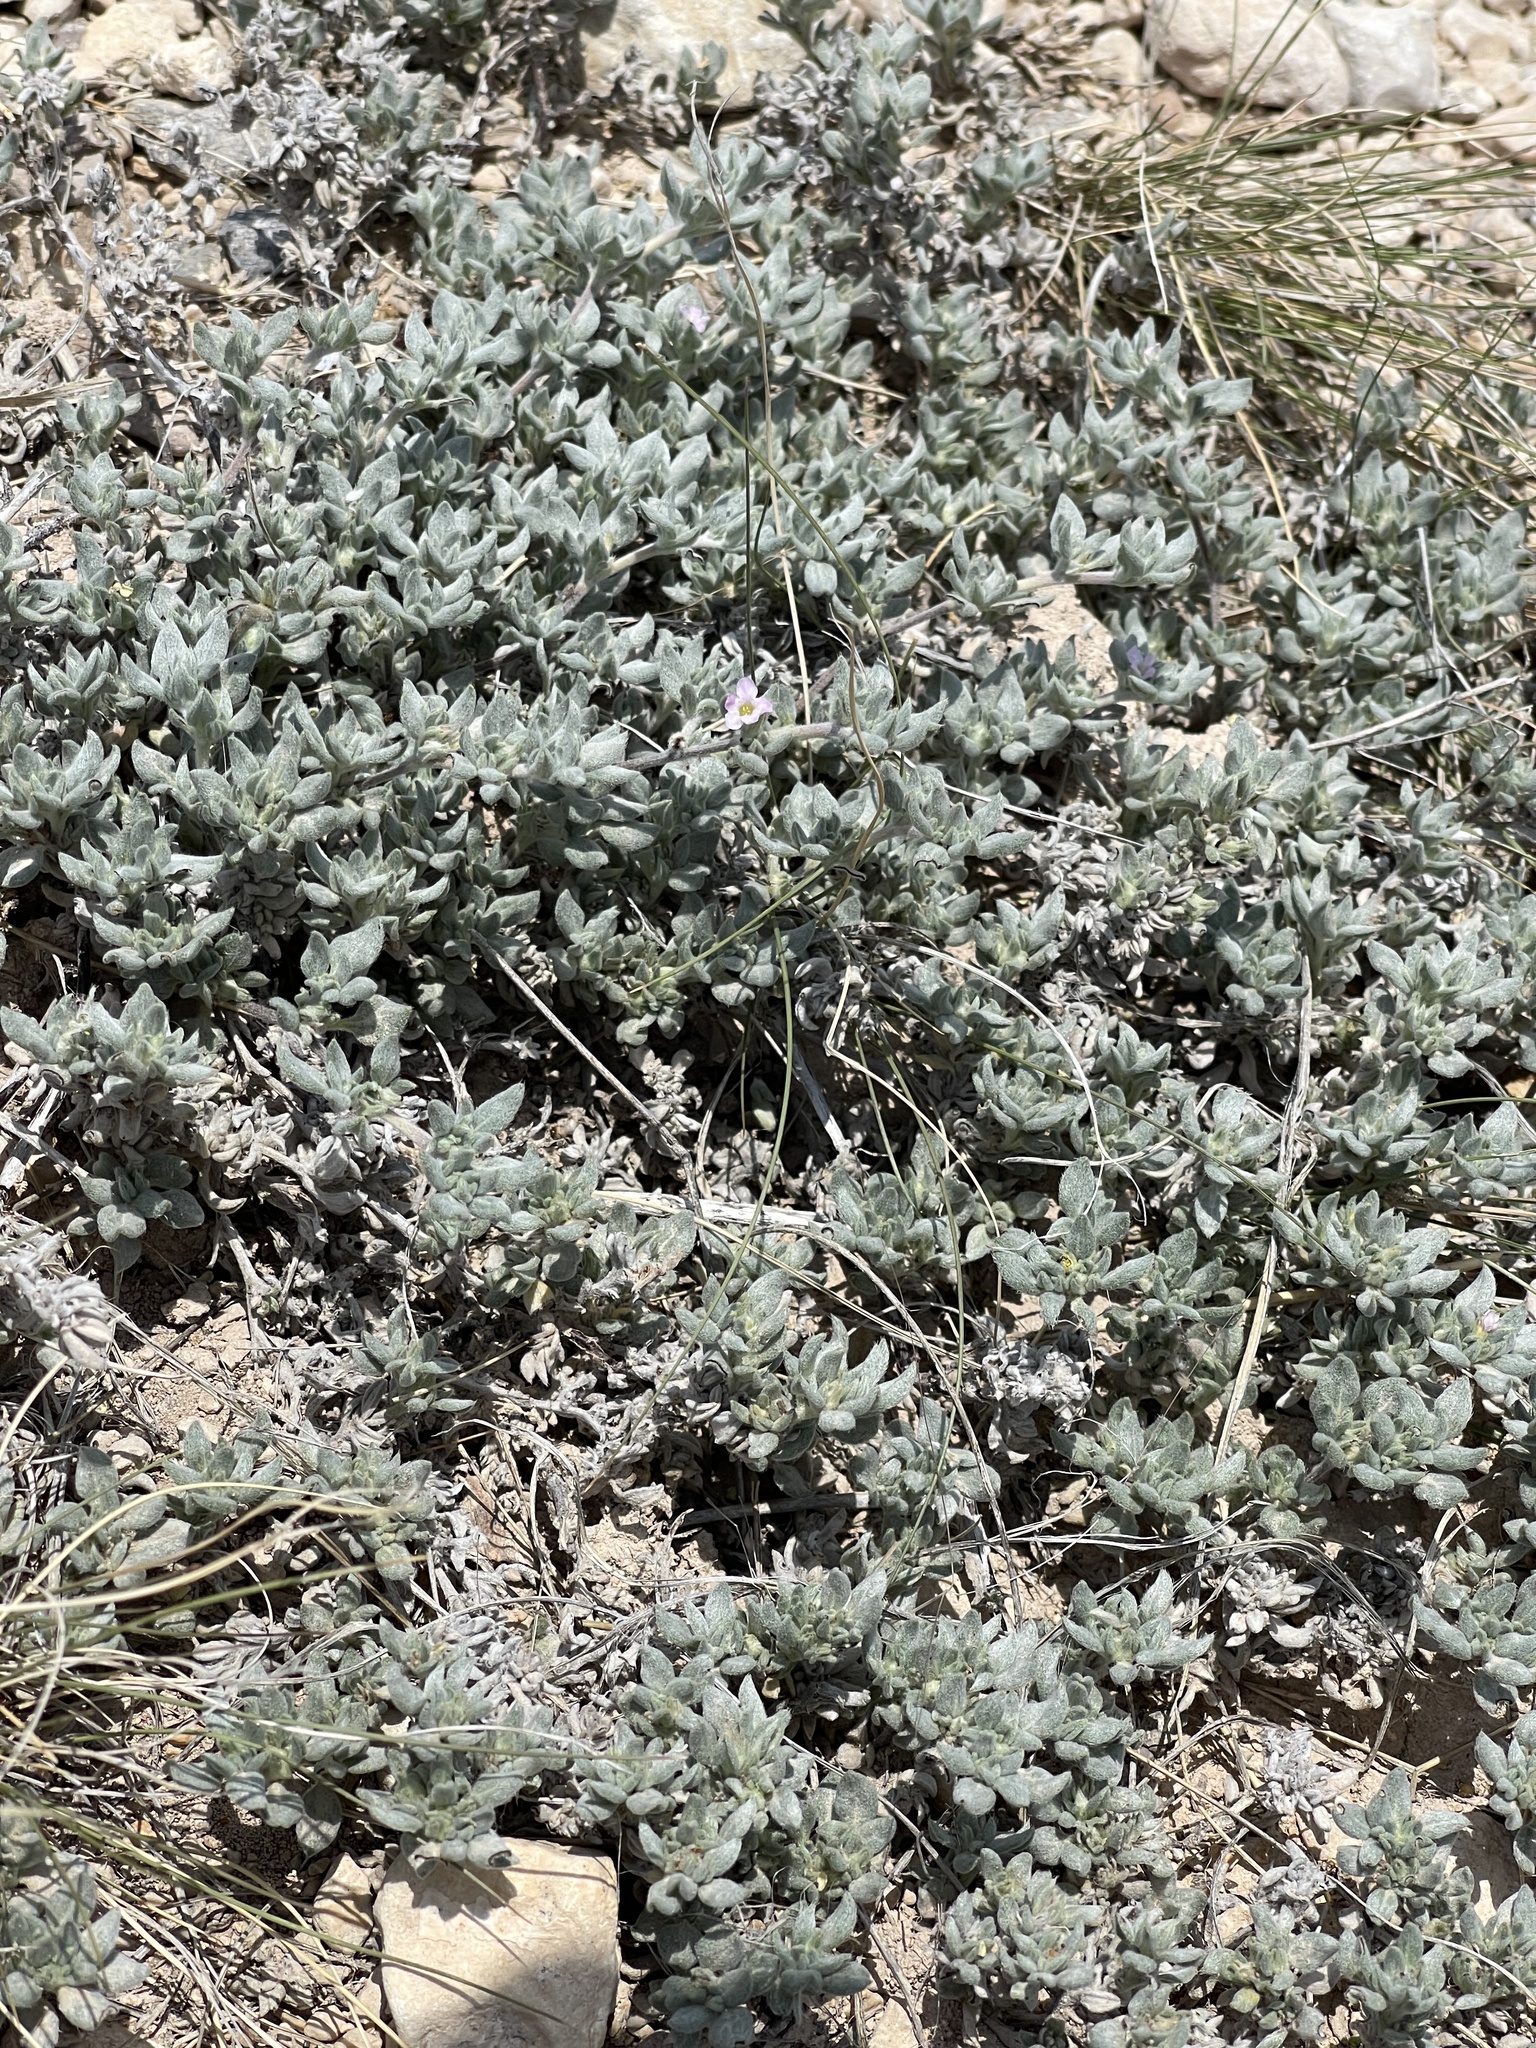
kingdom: Plantae
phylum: Tracheophyta
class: Magnoliopsida
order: Boraginales
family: Ehretiaceae
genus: Tiquilia
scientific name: Tiquilia canescens
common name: Hairy tiquilia
